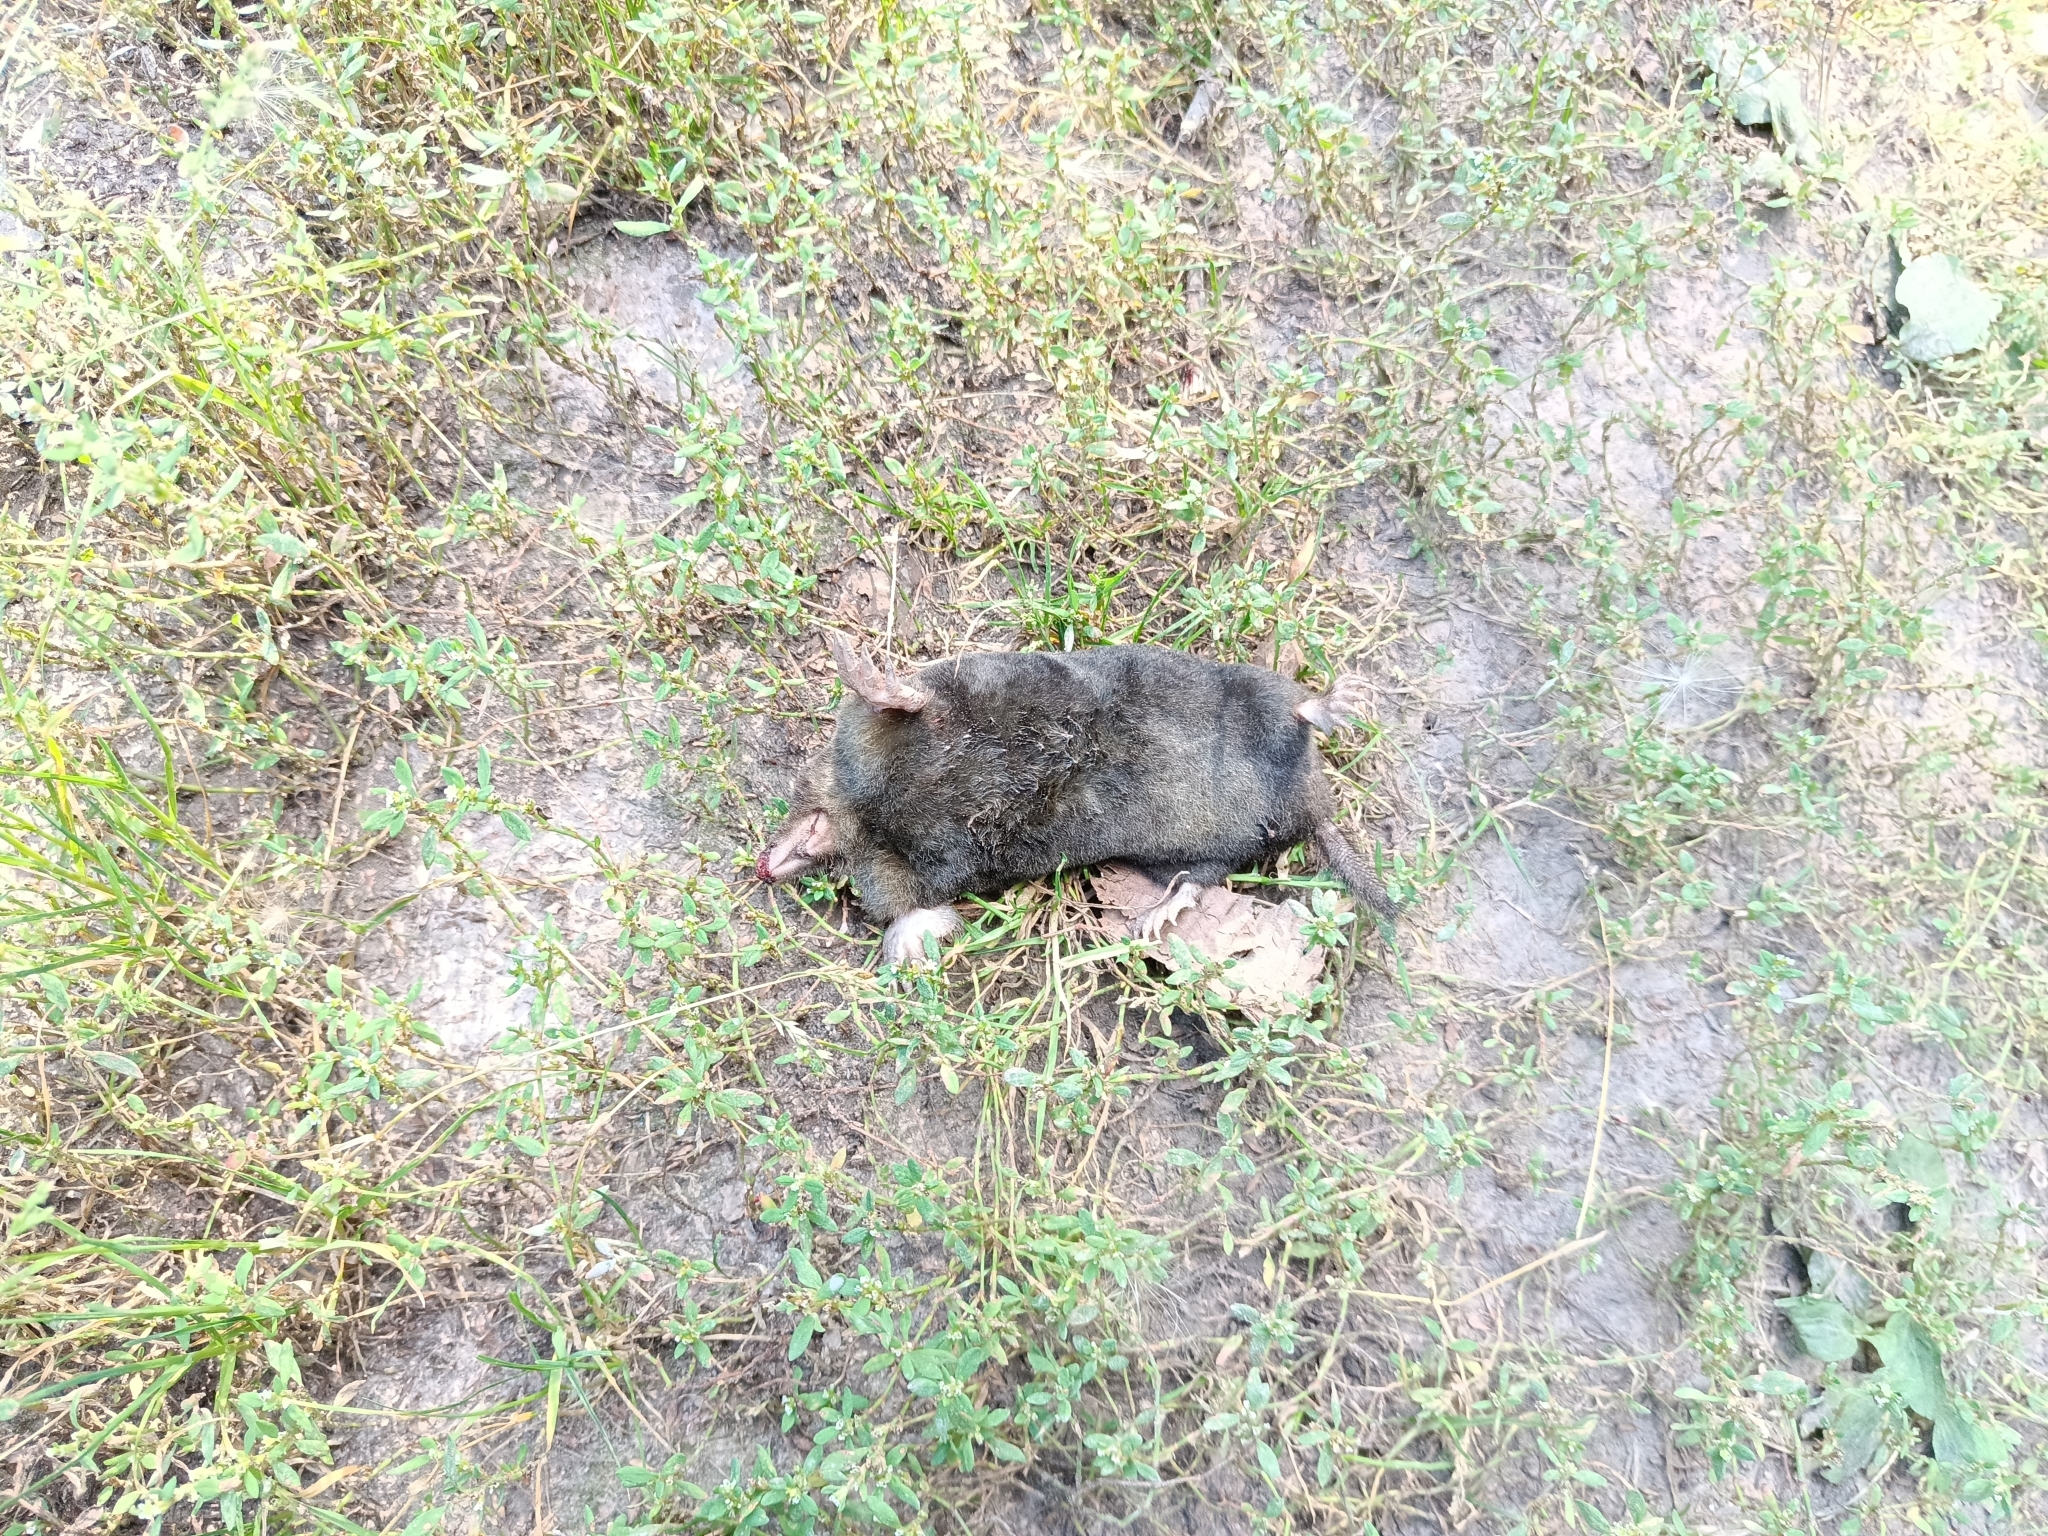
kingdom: Animalia
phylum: Chordata
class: Mammalia
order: Soricomorpha
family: Talpidae
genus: Talpa
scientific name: Talpa europaea
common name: European mole
